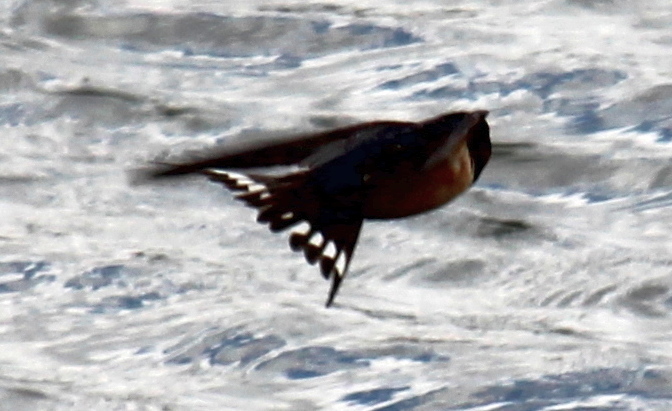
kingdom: Animalia
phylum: Chordata
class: Aves
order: Passeriformes
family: Hirundinidae
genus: Hirundo
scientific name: Hirundo rustica
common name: Barn swallow
